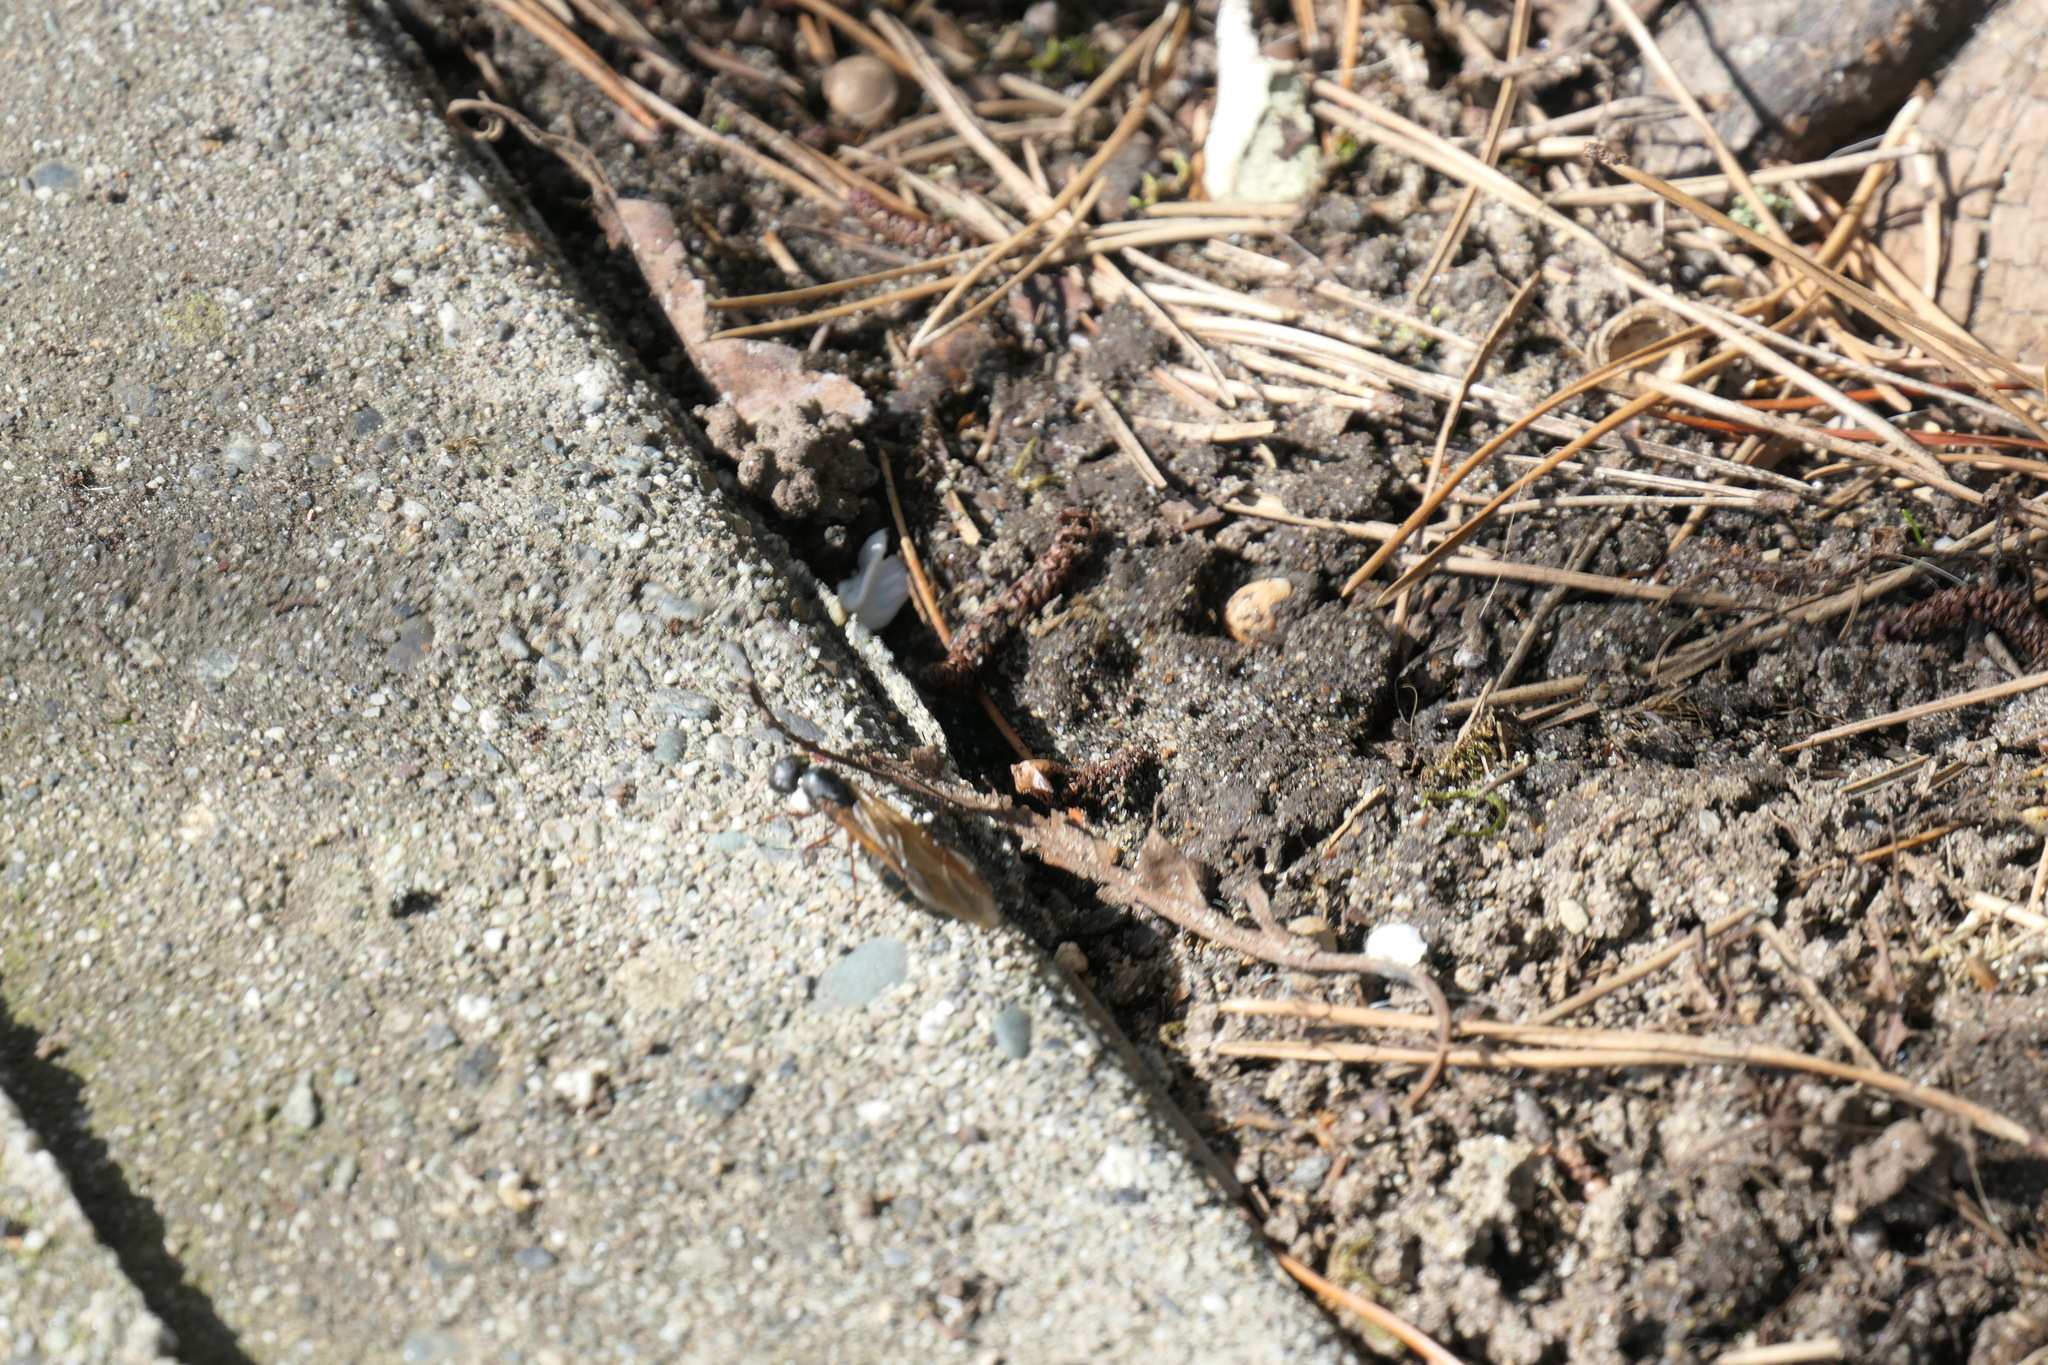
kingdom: Animalia
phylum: Arthropoda
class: Insecta
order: Hymenoptera
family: Formicidae
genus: Camponotus
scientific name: Camponotus modoc
